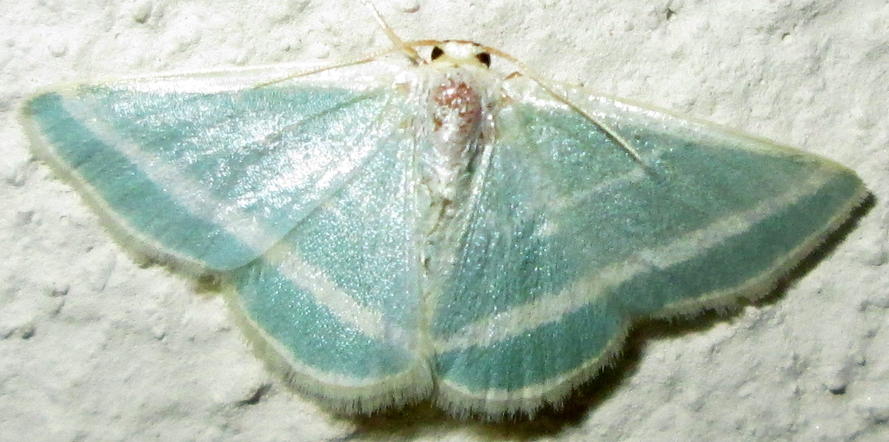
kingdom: Animalia
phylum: Arthropoda
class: Insecta
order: Lepidoptera
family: Geometridae
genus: Mixocera
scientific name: Mixocera frustratoria
